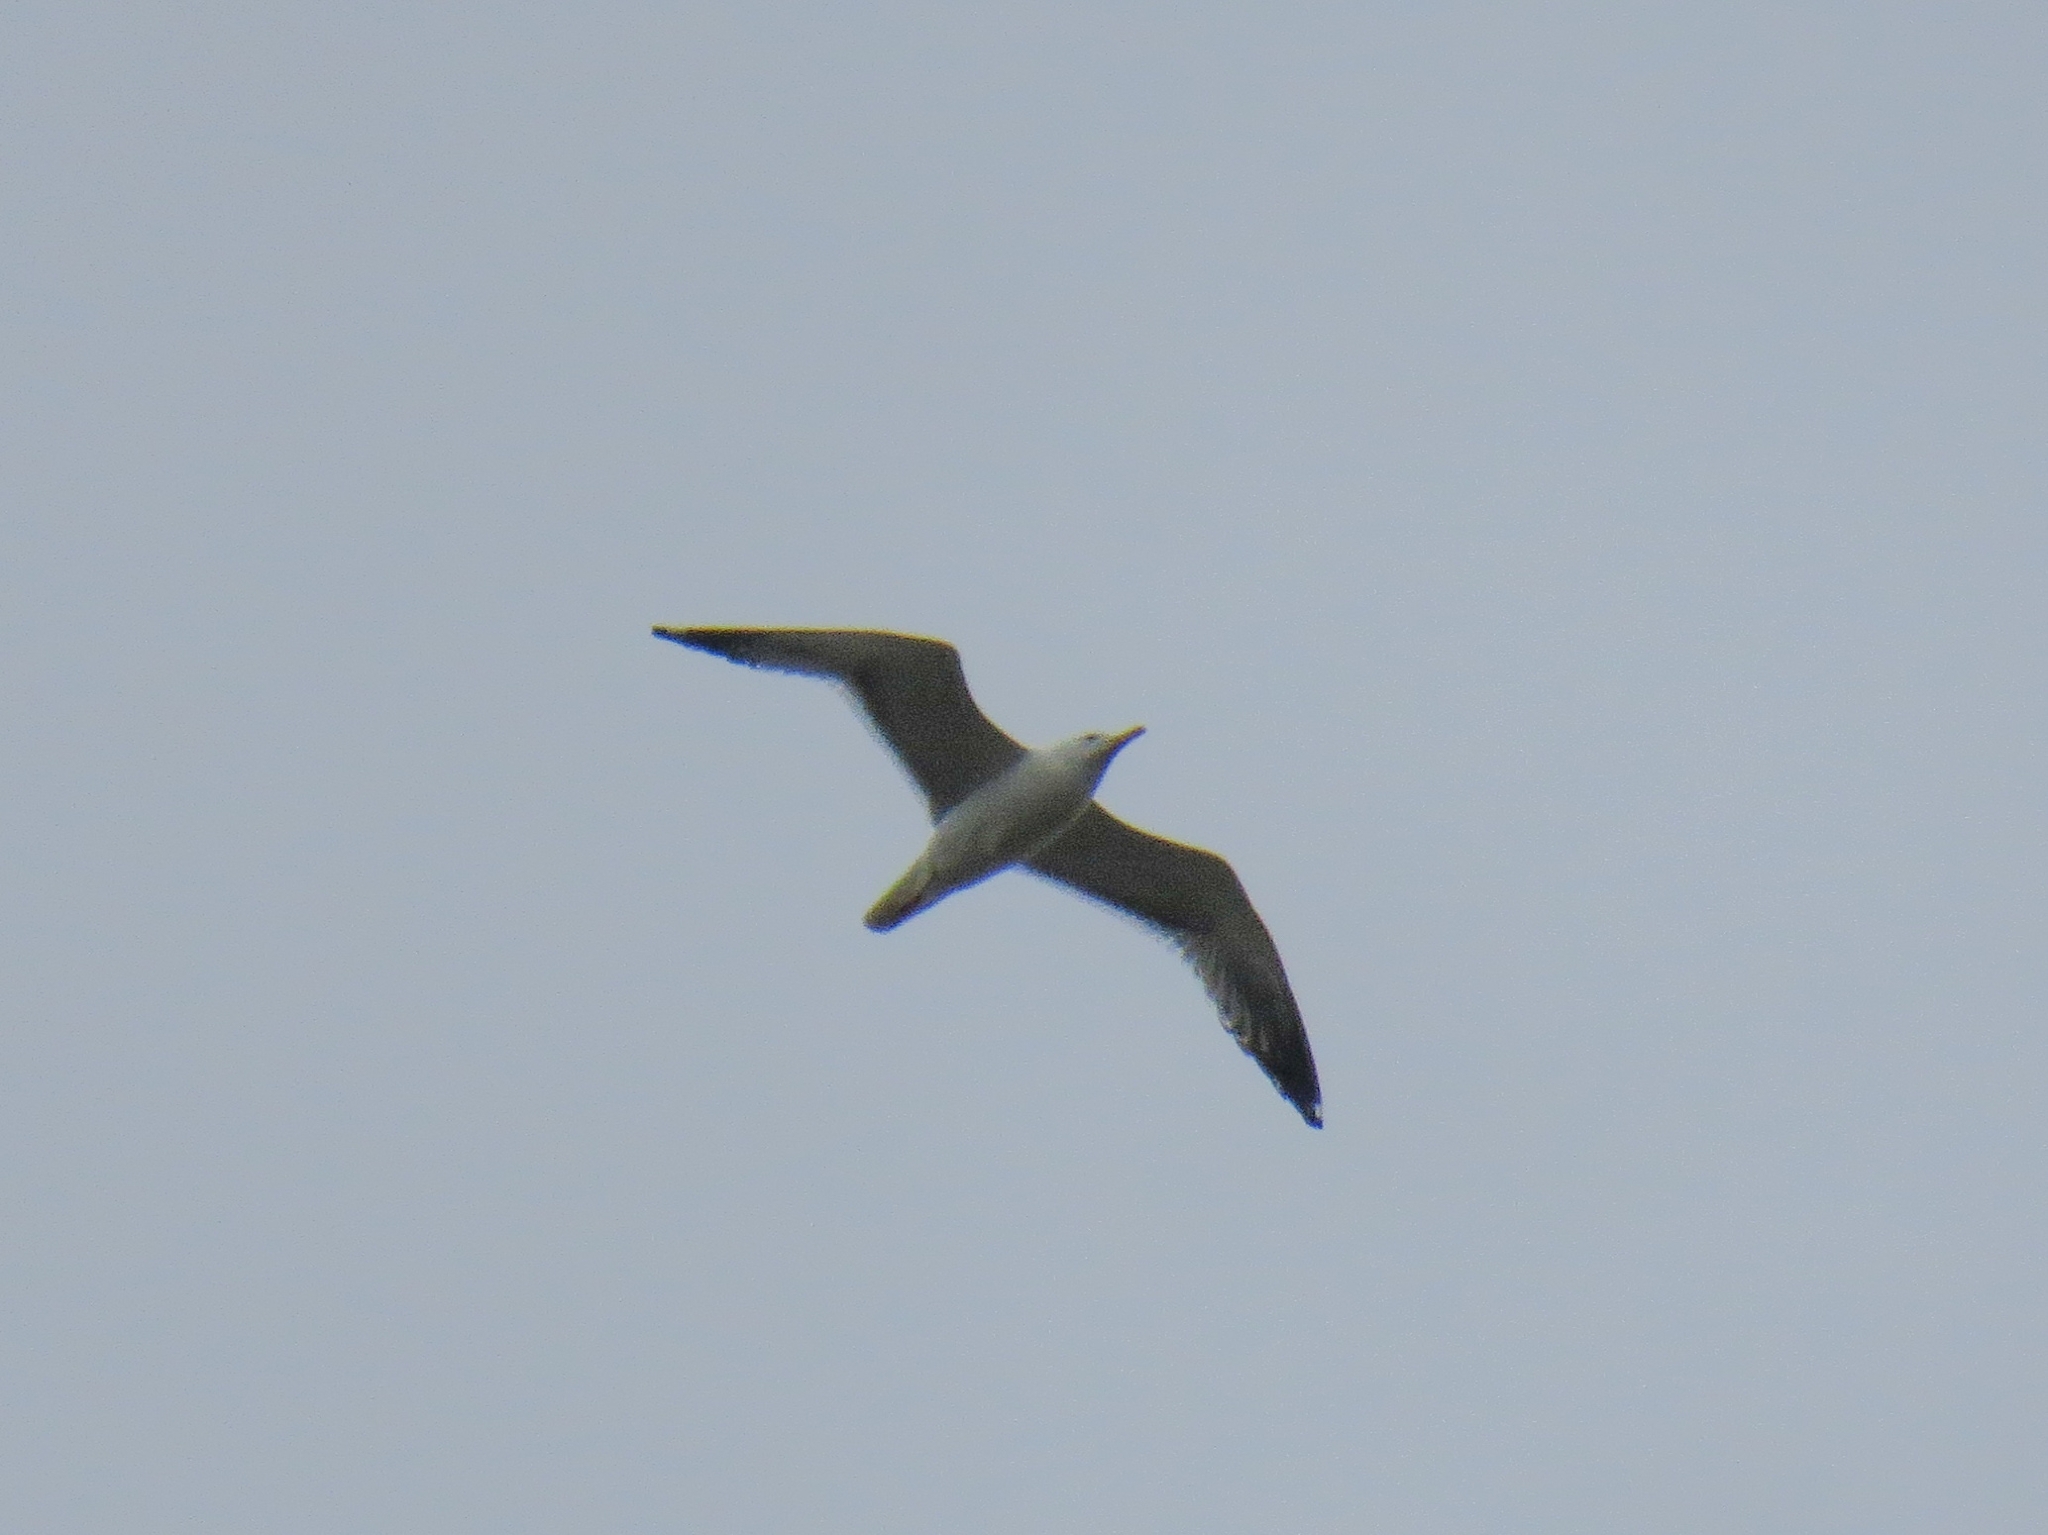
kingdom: Animalia
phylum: Chordata
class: Aves
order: Charadriiformes
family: Laridae
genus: Larus
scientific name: Larus fuscus
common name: Lesser black-backed gull
